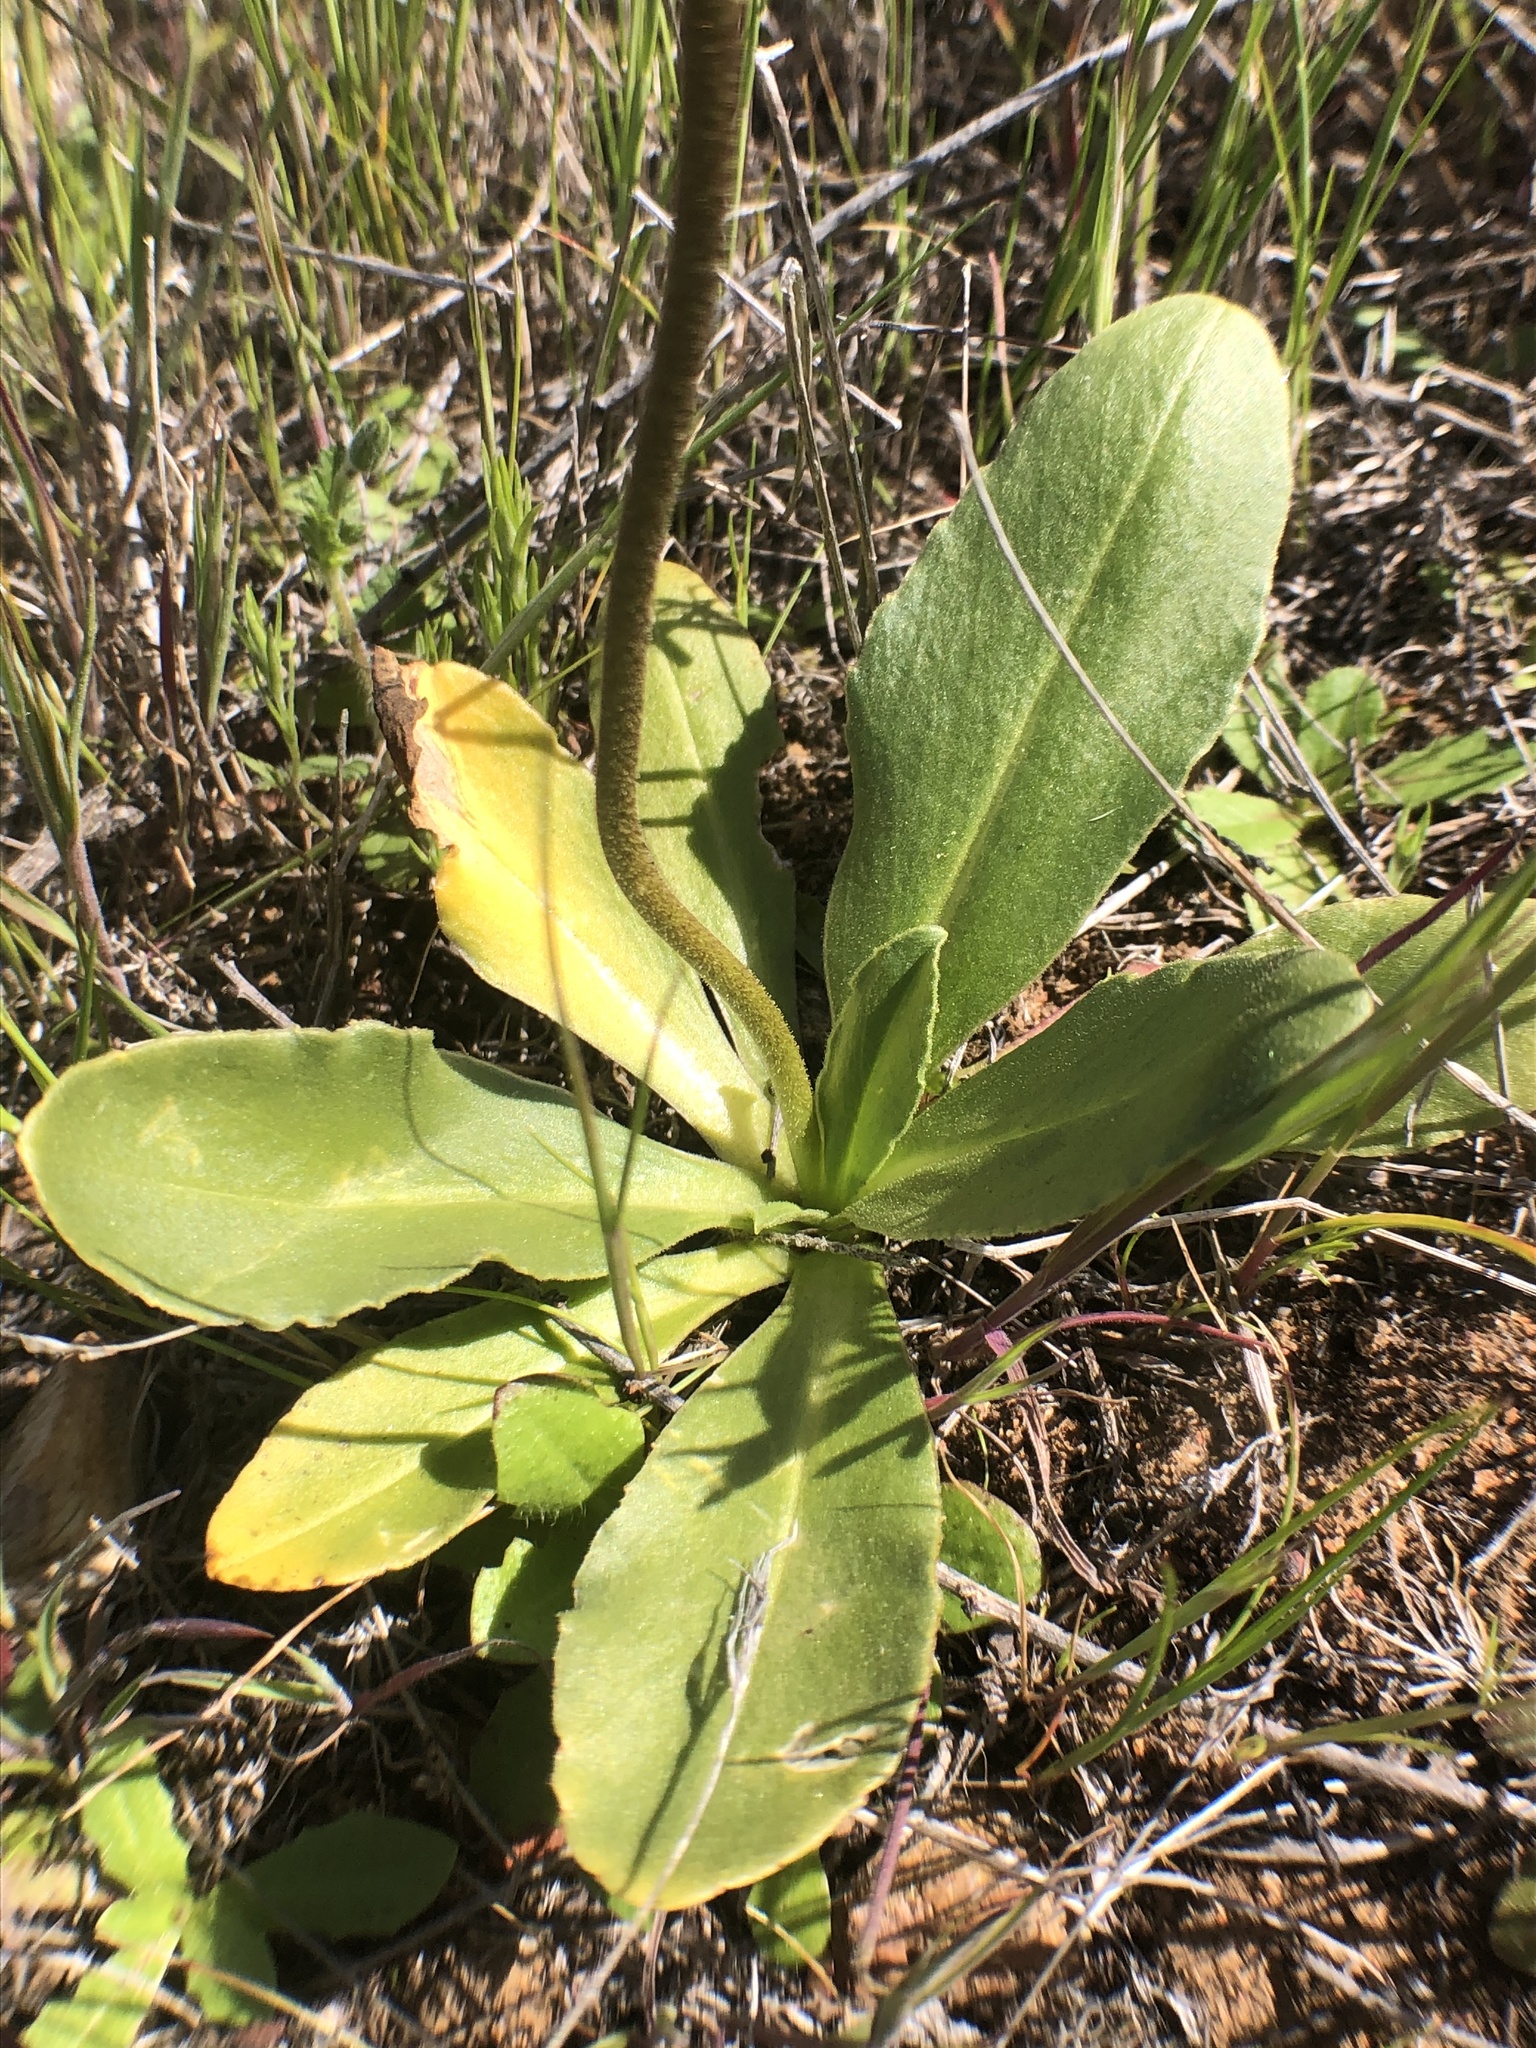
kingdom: Plantae
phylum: Tracheophyta
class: Magnoliopsida
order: Ericales
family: Primulaceae
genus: Dodecatheon
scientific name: Dodecatheon clevelandii
